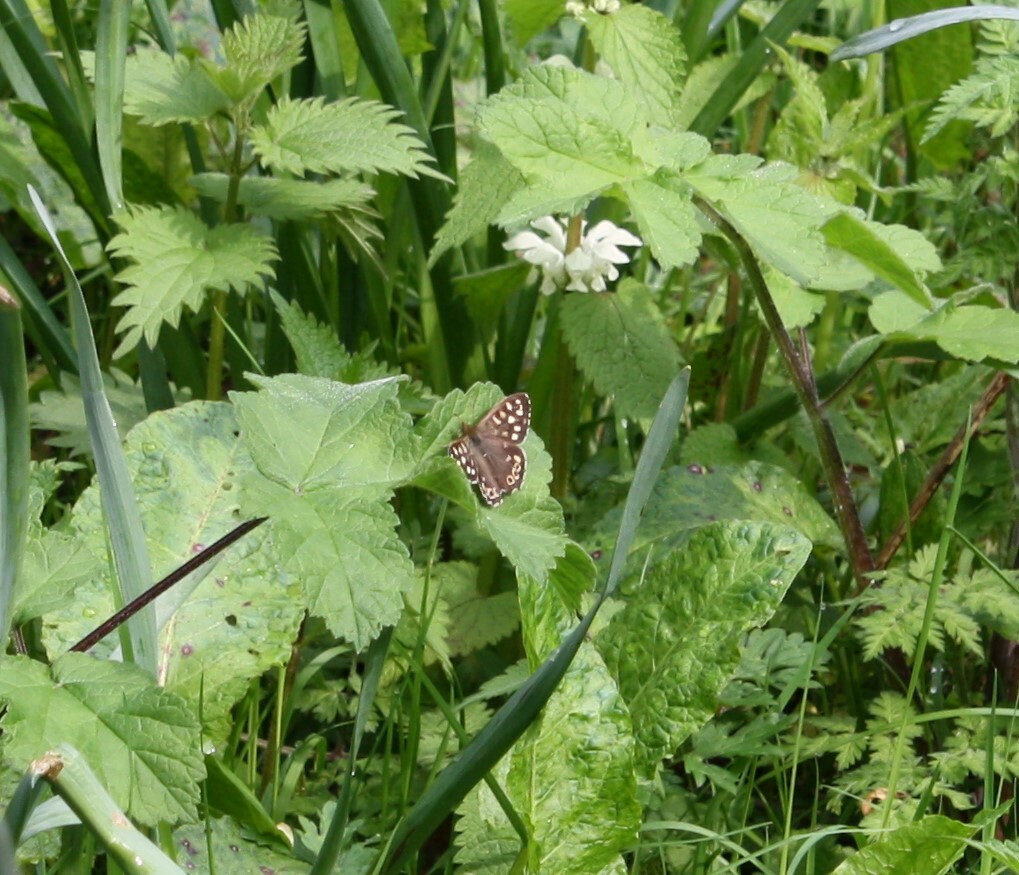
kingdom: Animalia
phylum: Arthropoda
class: Insecta
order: Lepidoptera
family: Nymphalidae
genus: Pararge
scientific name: Pararge aegeria
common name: Speckled wood
